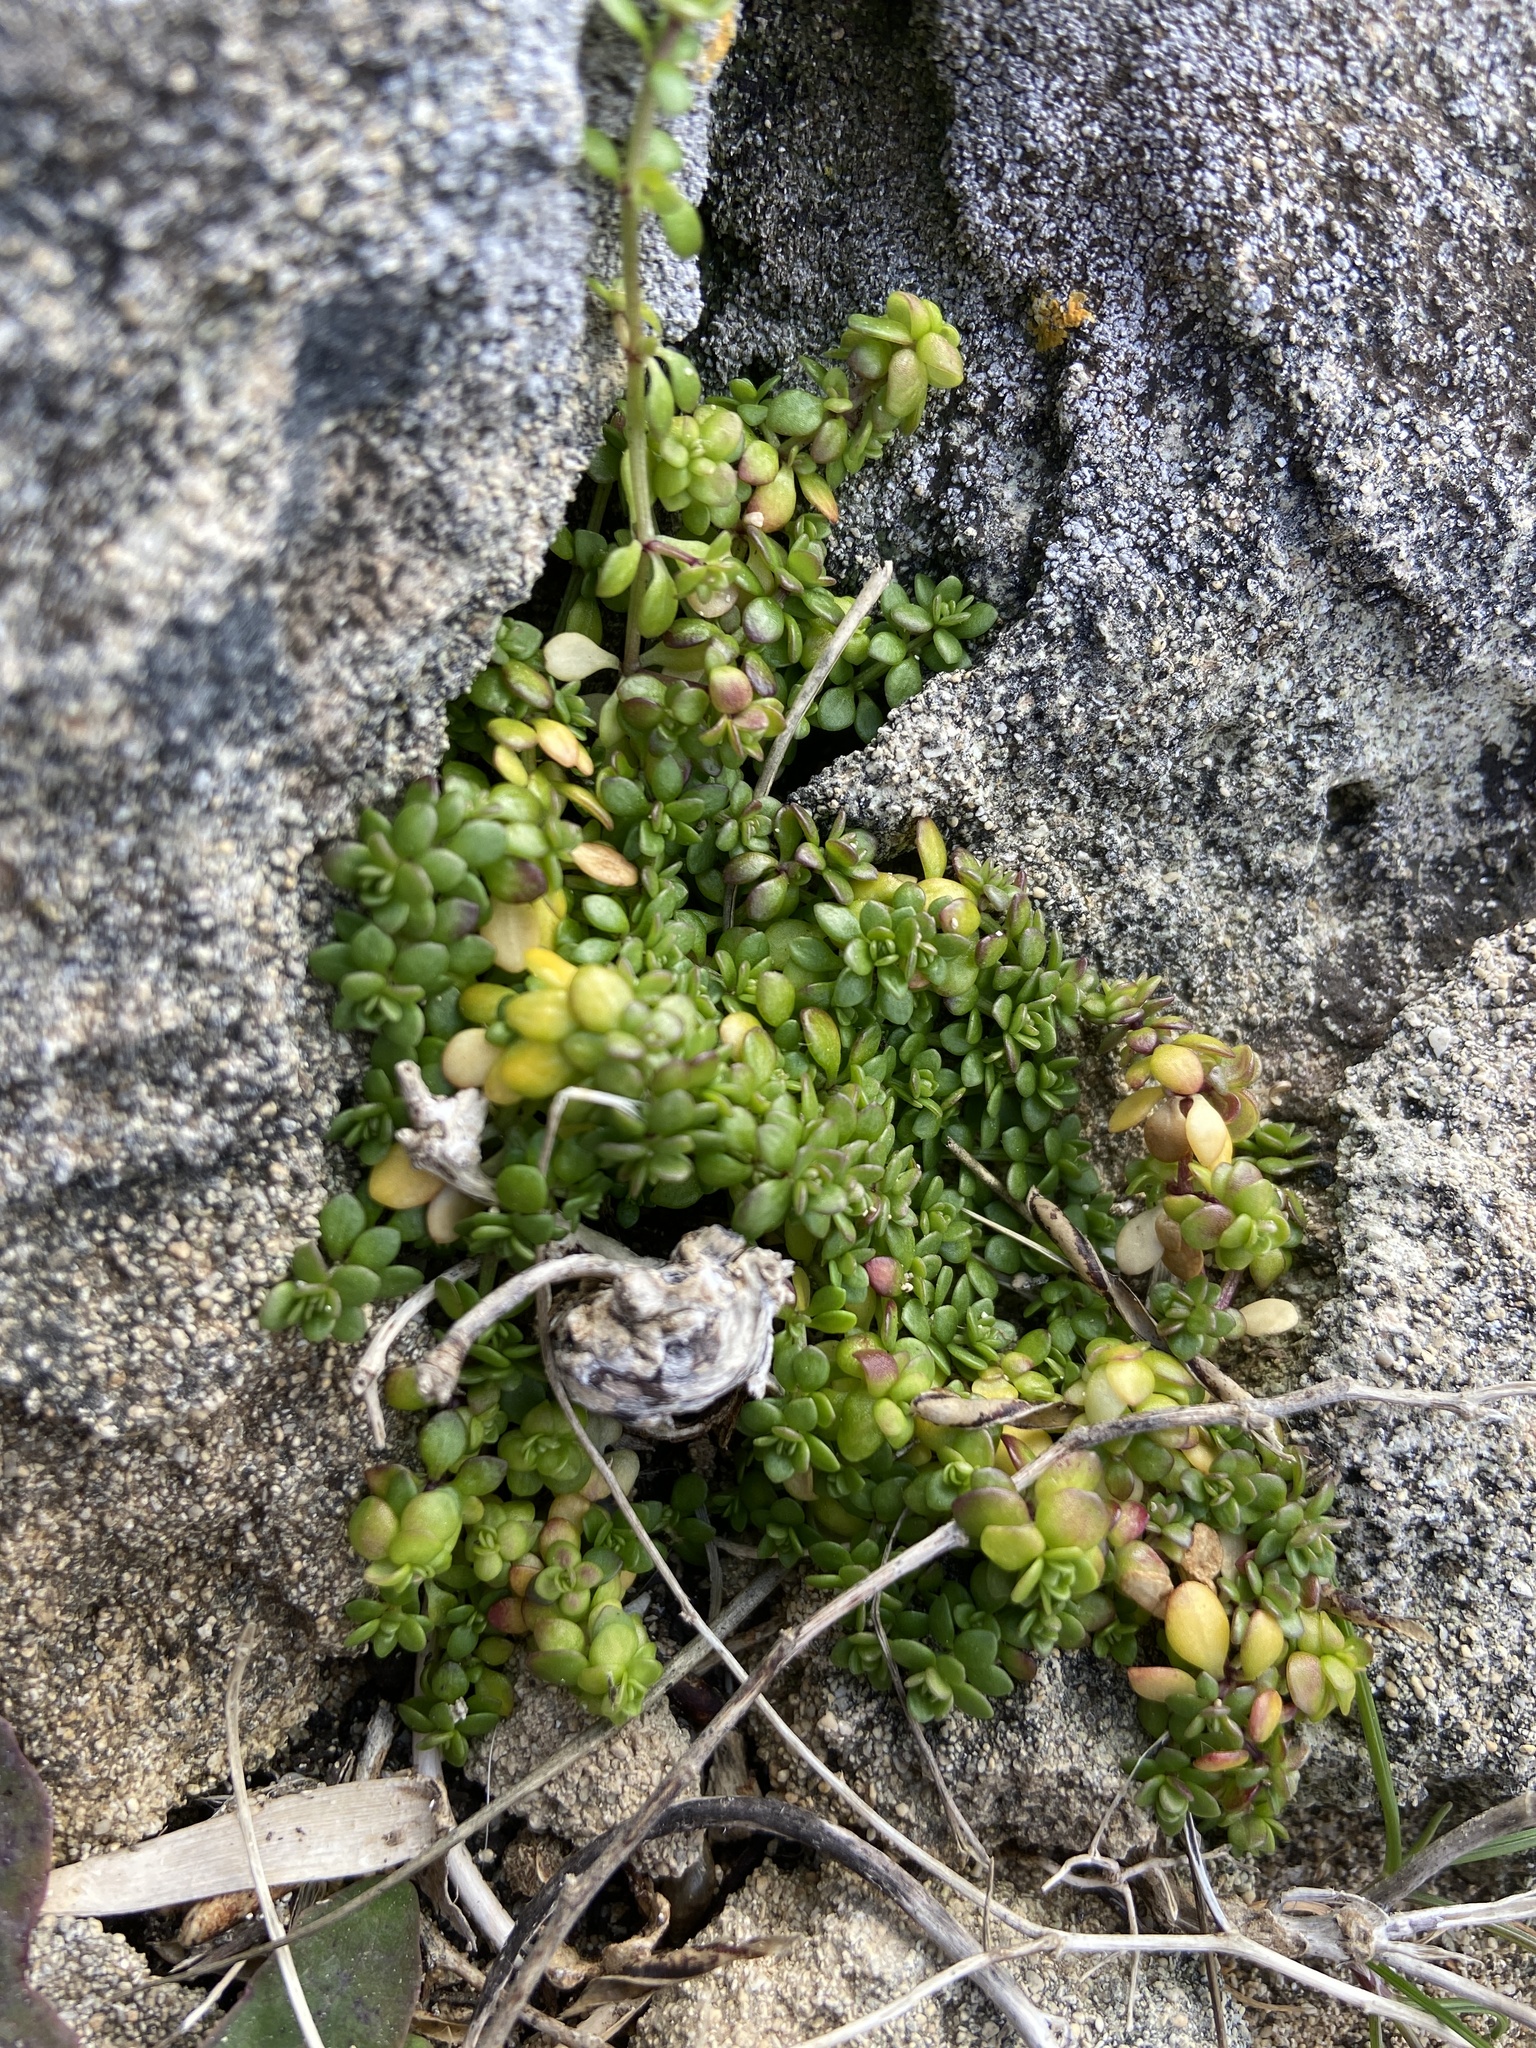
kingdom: Plantae
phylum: Tracheophyta
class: Magnoliopsida
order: Gentianales
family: Rubiaceae
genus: Valantia
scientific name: Valantia muralis
